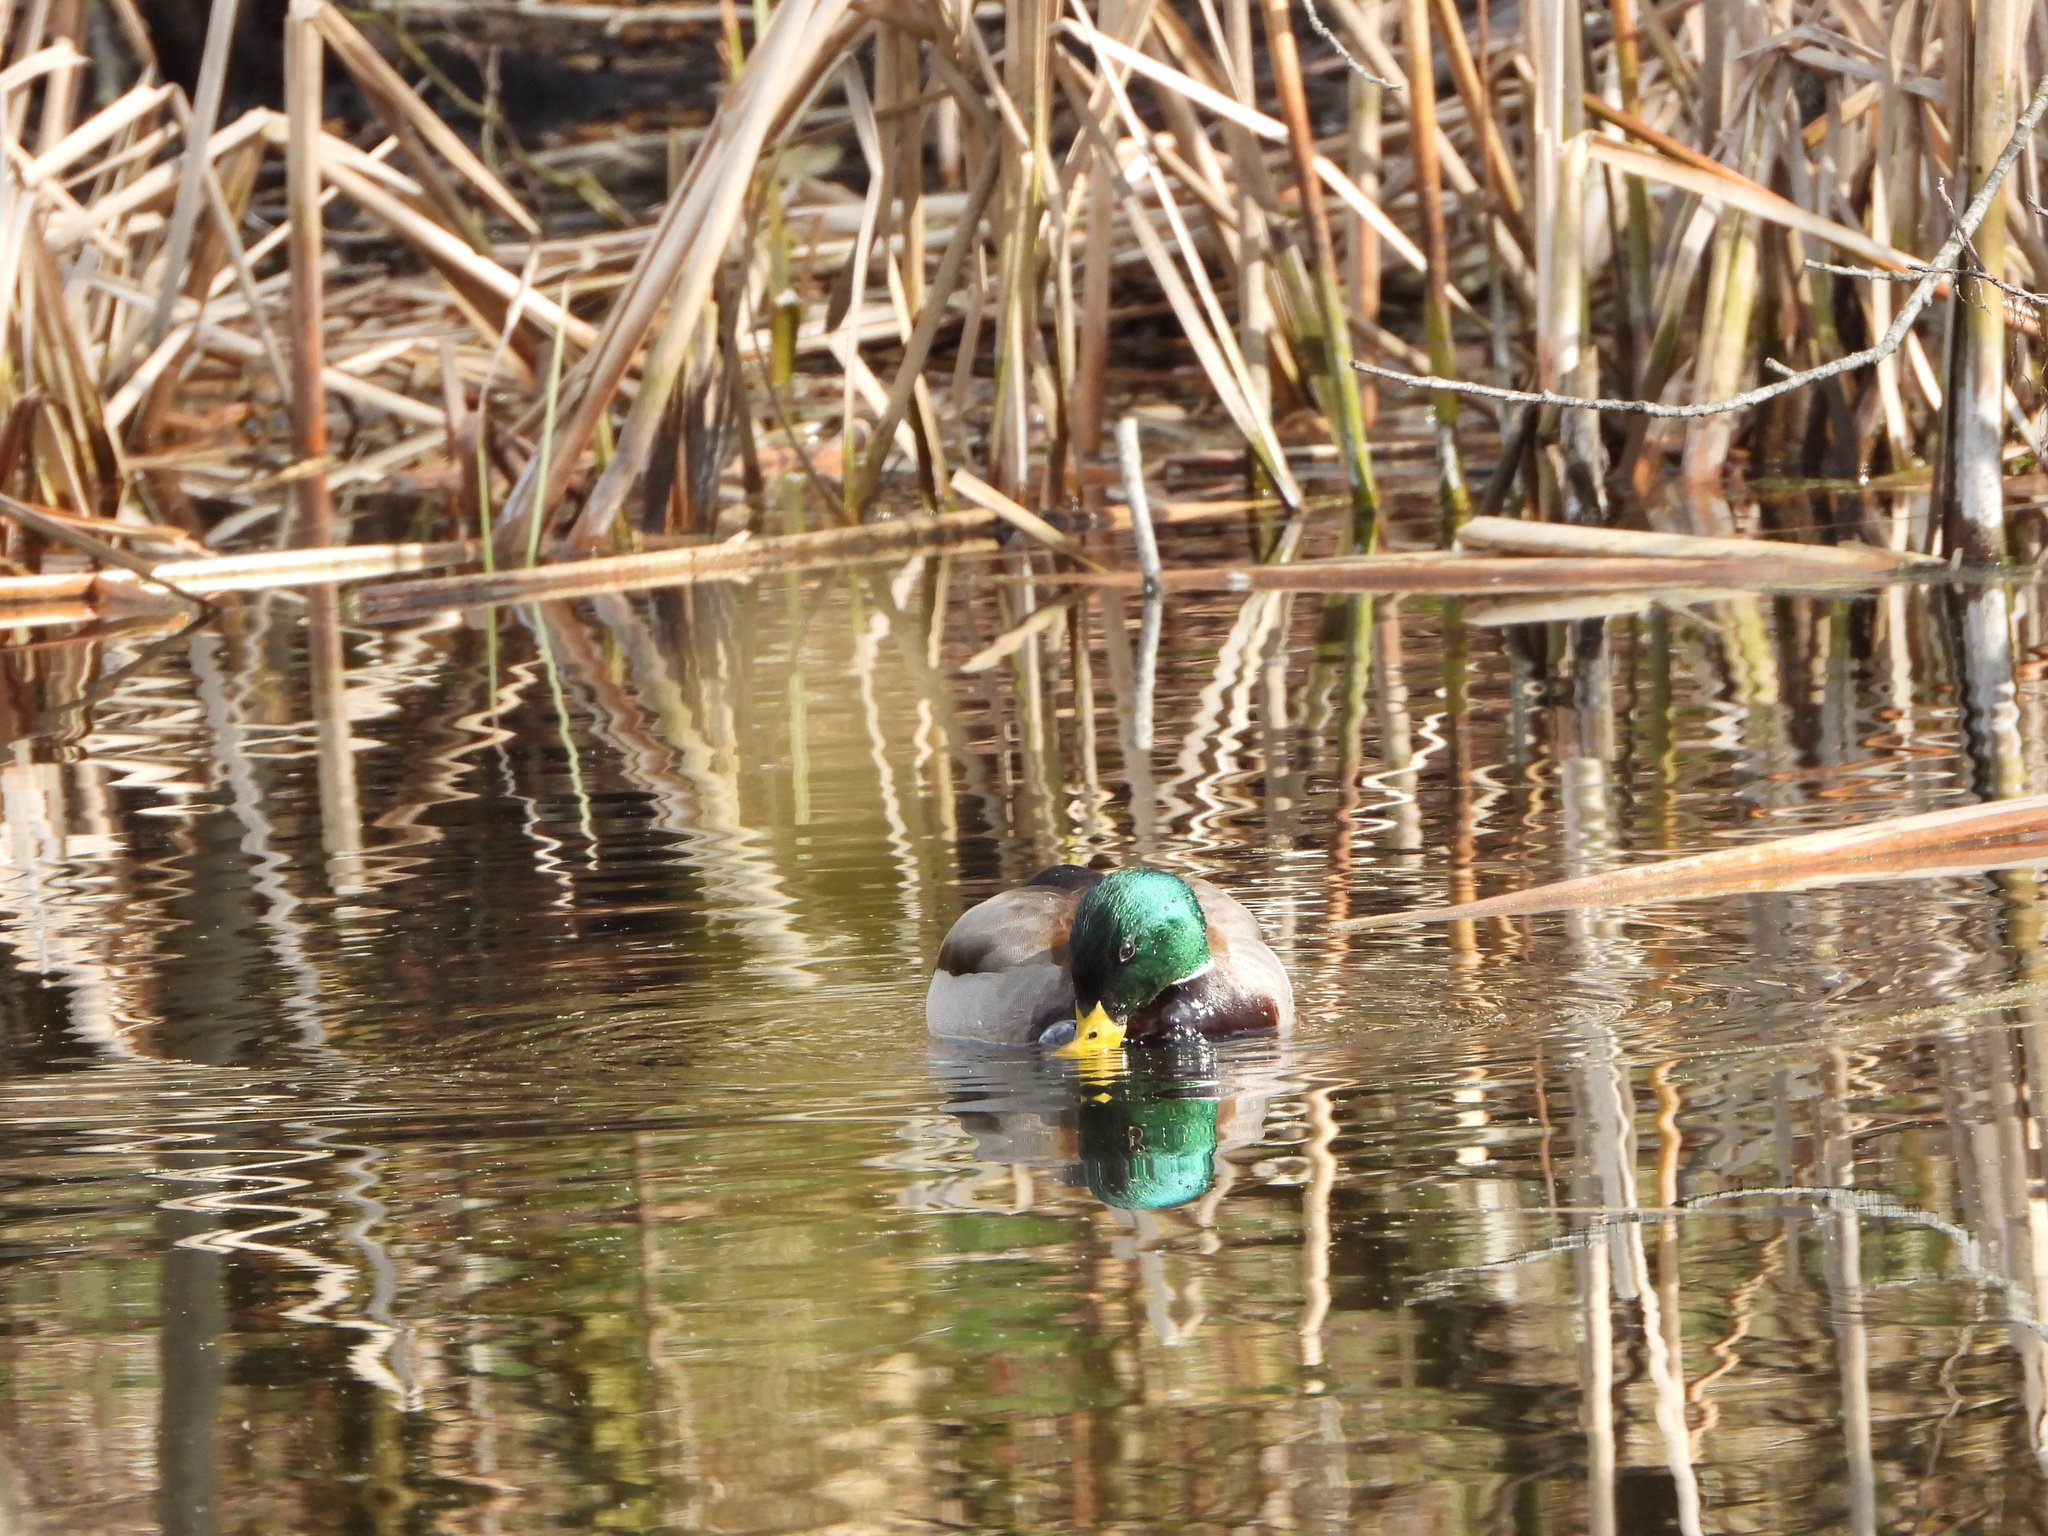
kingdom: Animalia
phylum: Chordata
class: Aves
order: Anseriformes
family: Anatidae
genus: Anas
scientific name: Anas platyrhynchos
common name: Mallard
